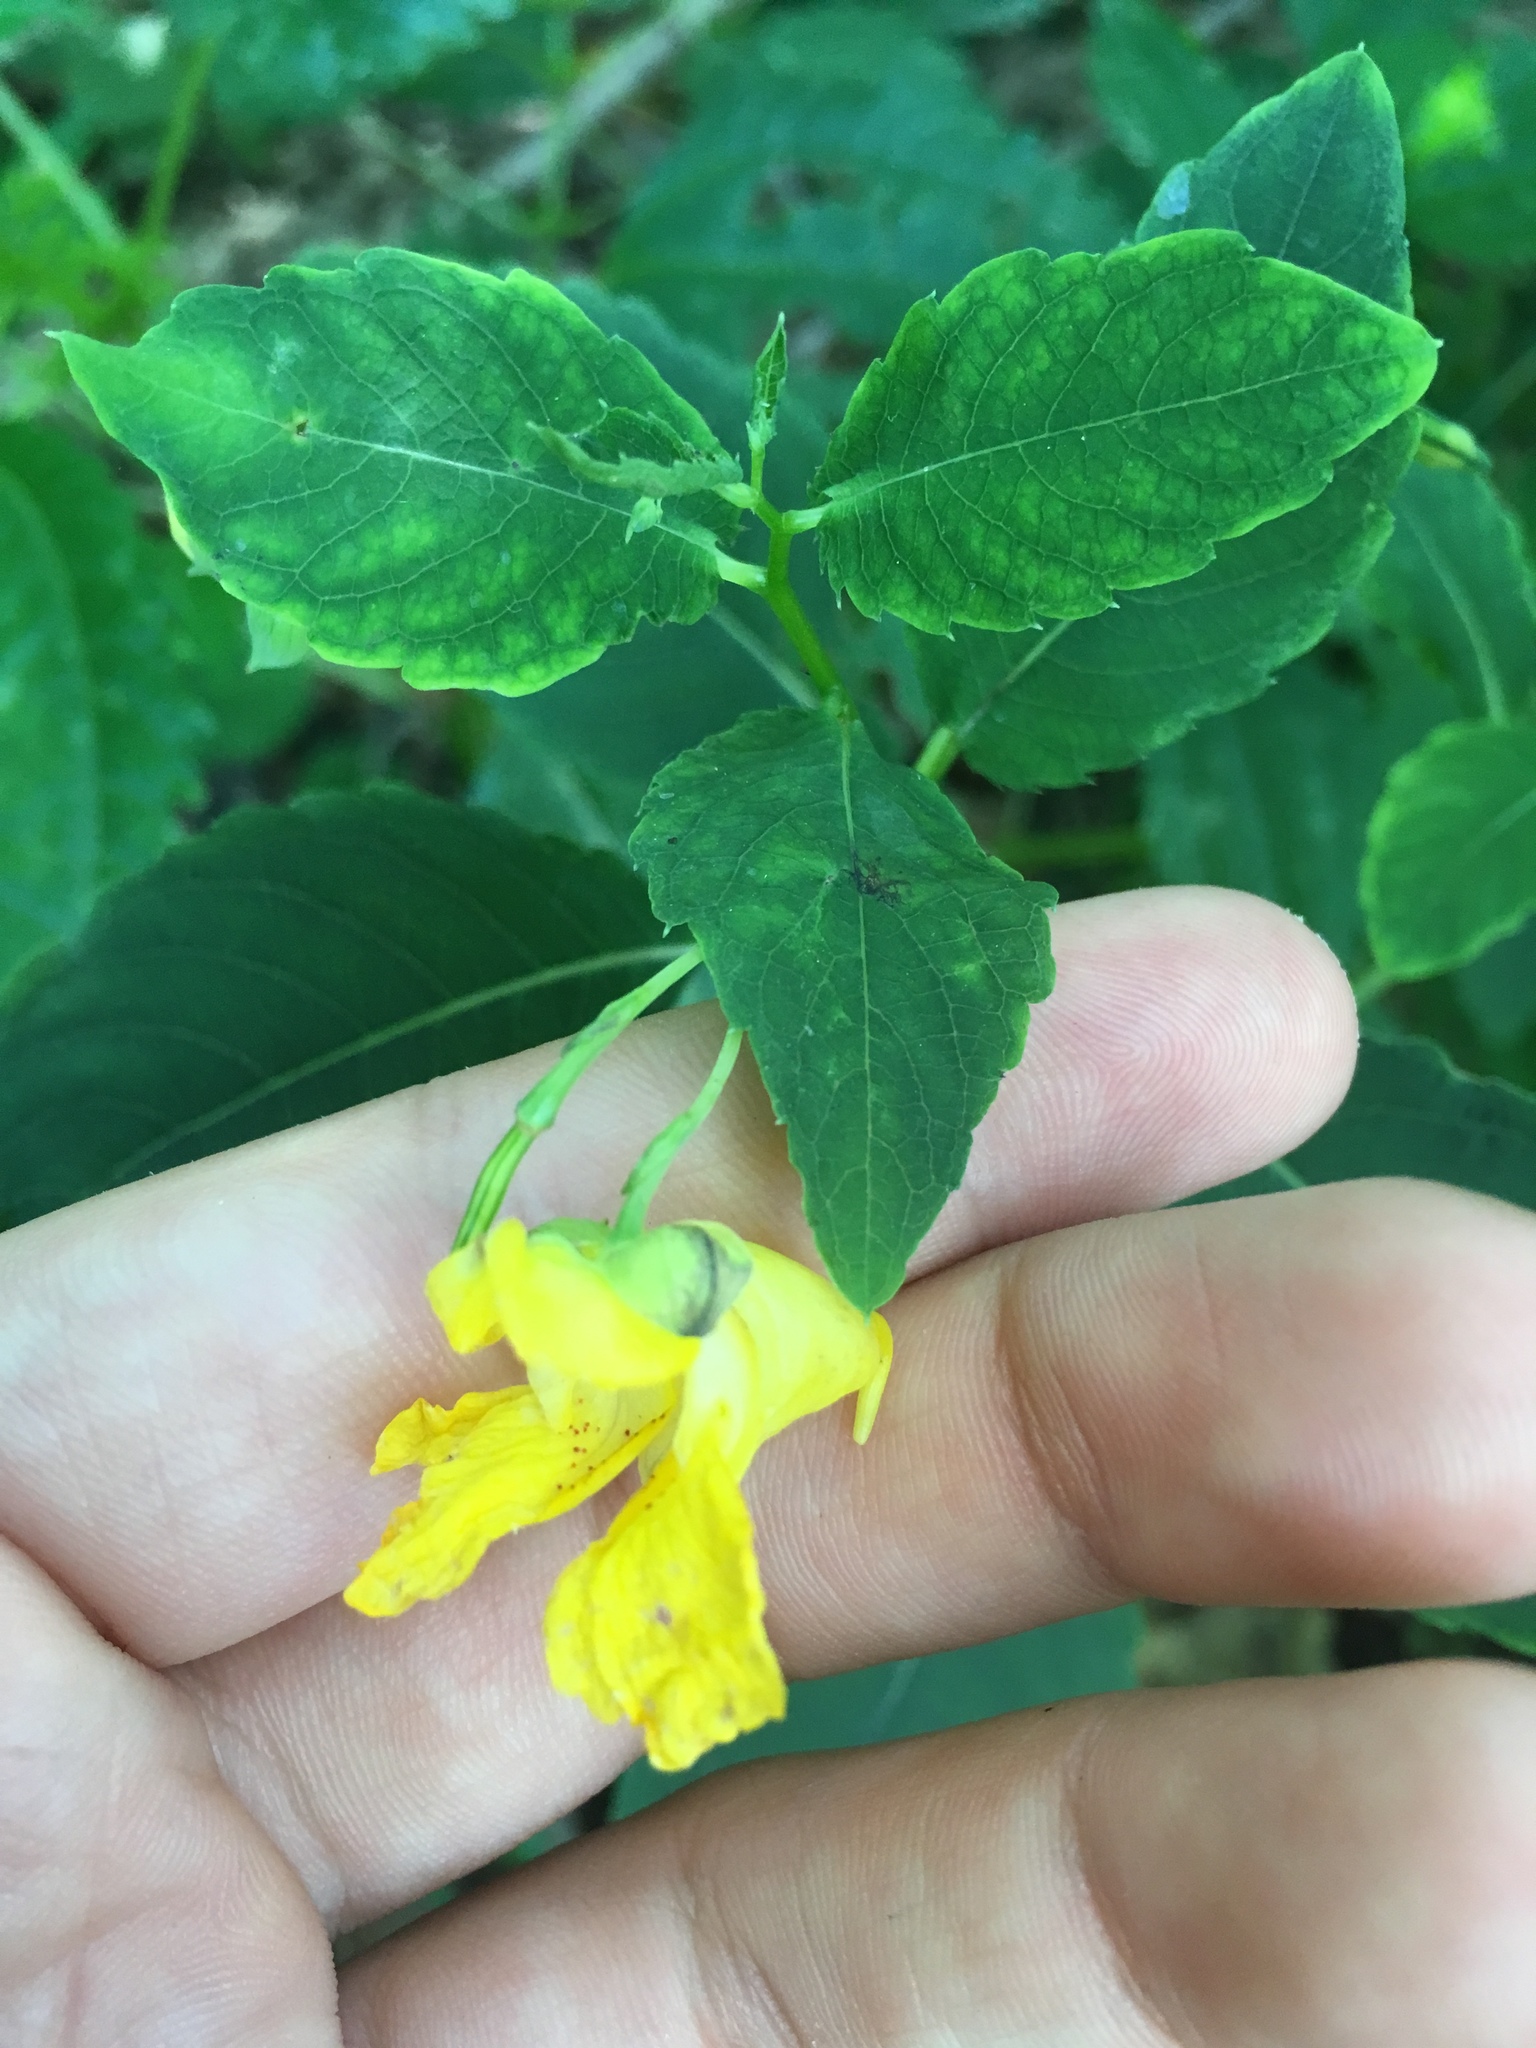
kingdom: Plantae
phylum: Tracheophyta
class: Magnoliopsida
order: Ericales
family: Balsaminaceae
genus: Impatiens
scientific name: Impatiens pallida
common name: Pale snapweed
